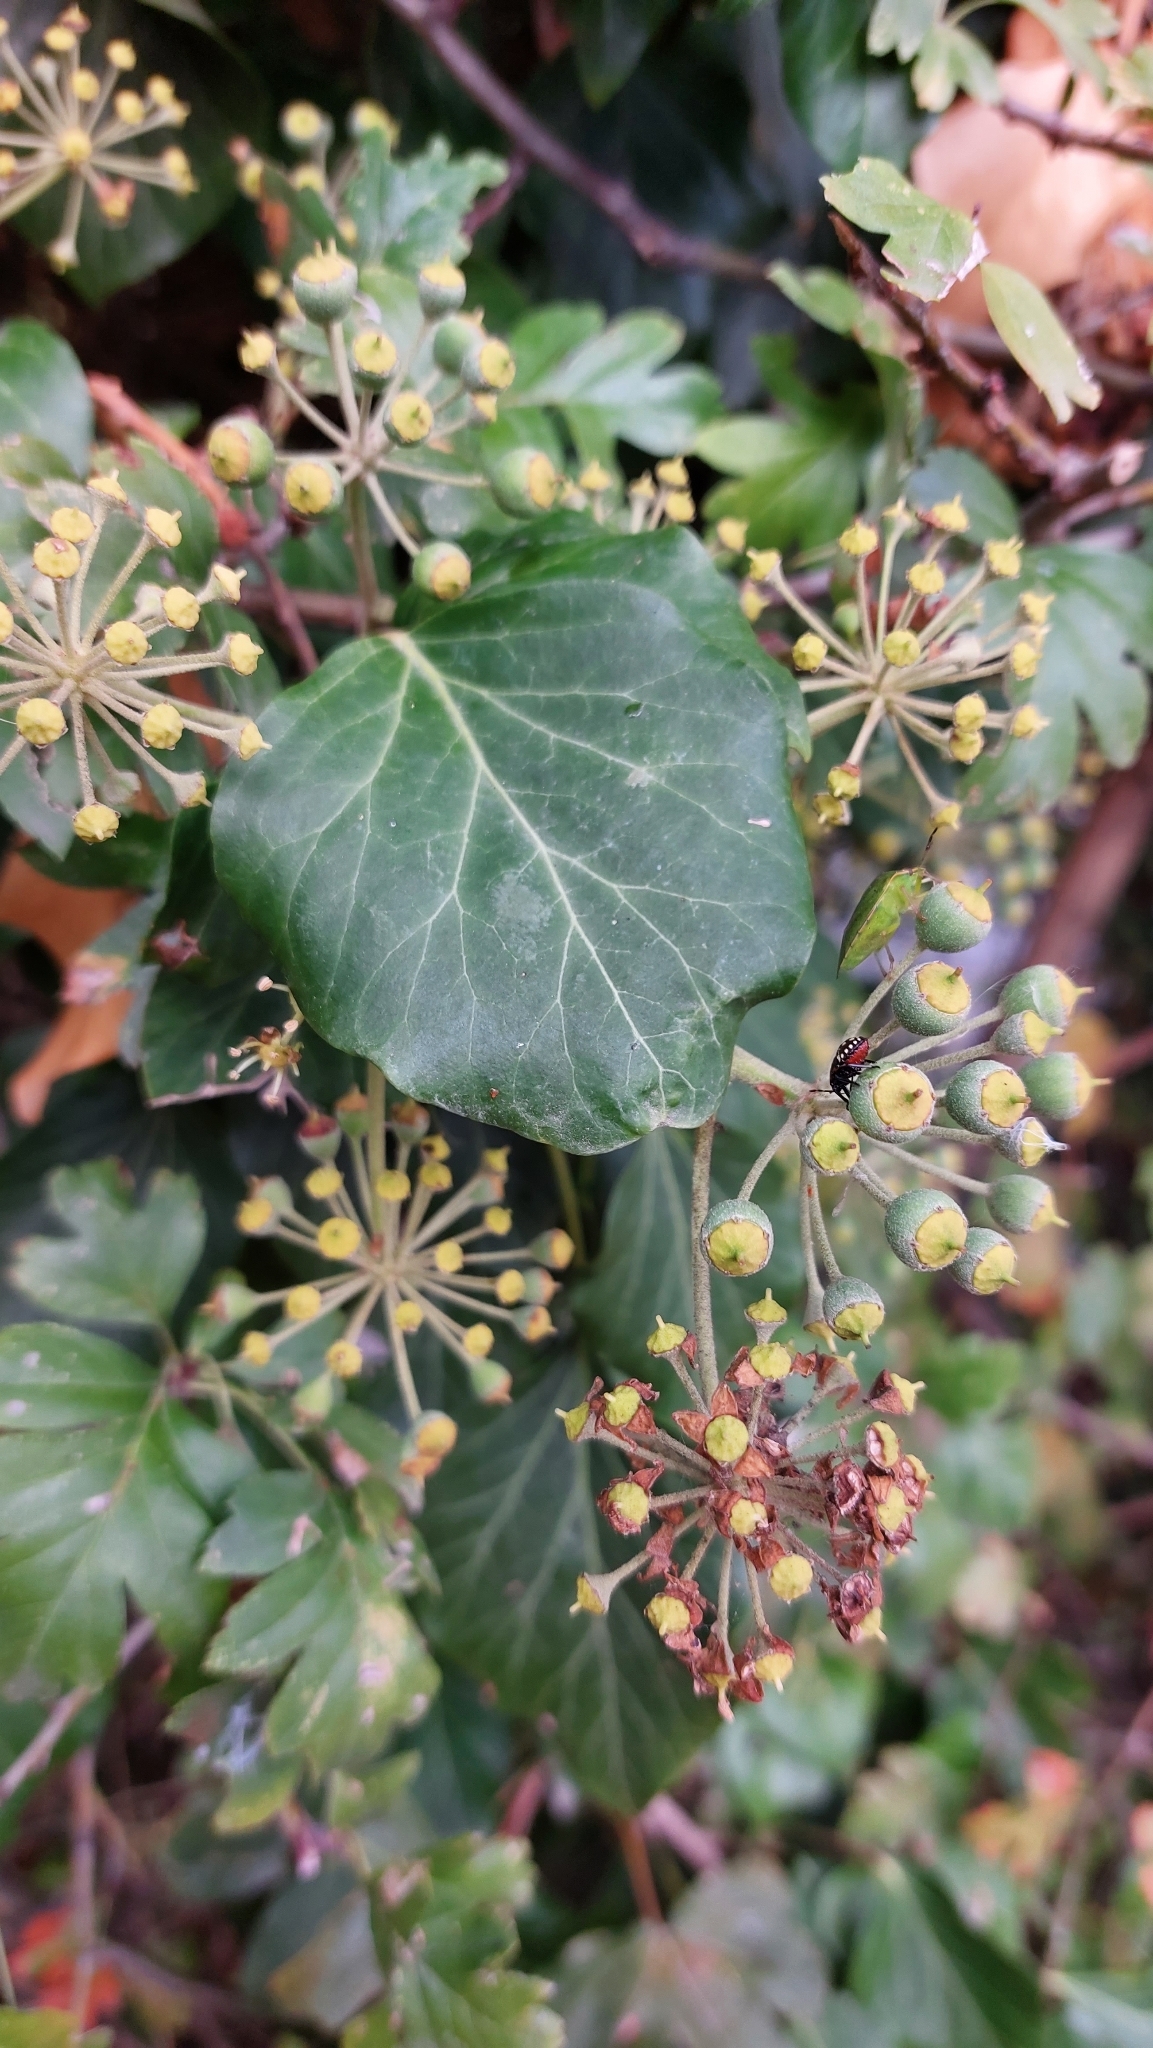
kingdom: Plantae
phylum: Tracheophyta
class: Magnoliopsida
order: Apiales
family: Araliaceae
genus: Hedera
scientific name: Hedera helix
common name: Ivy
